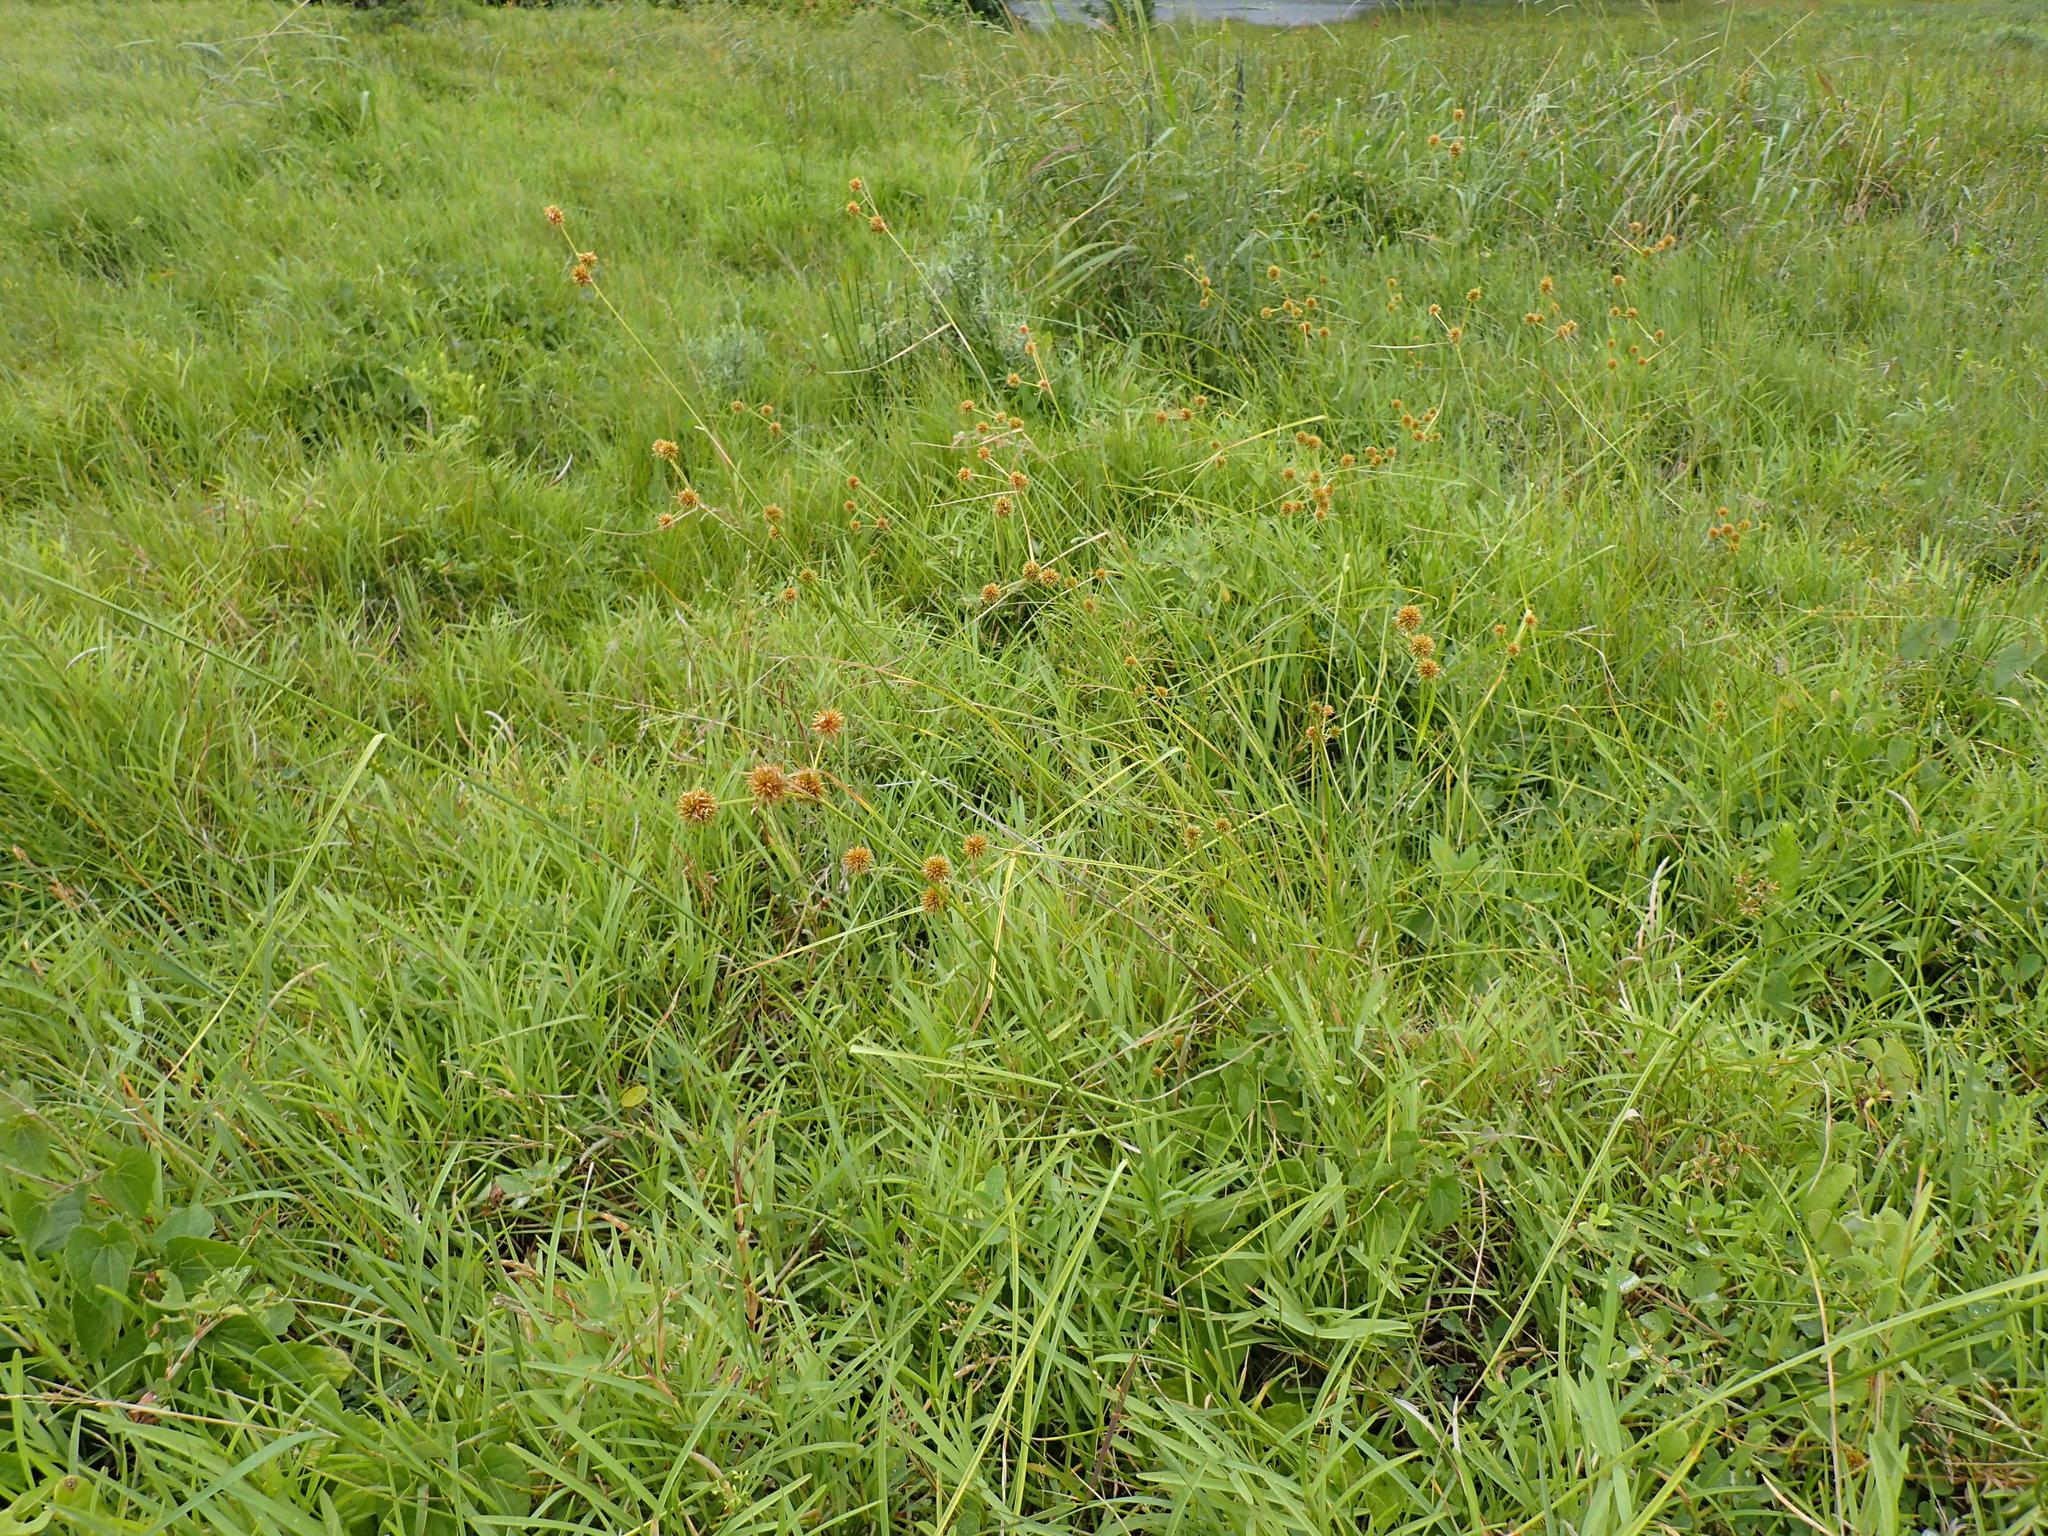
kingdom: Plantae
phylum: Tracheophyta
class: Liliopsida
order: Poales
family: Cyperaceae
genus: Rhynchospora
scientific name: Rhynchospora holoschoenoides
